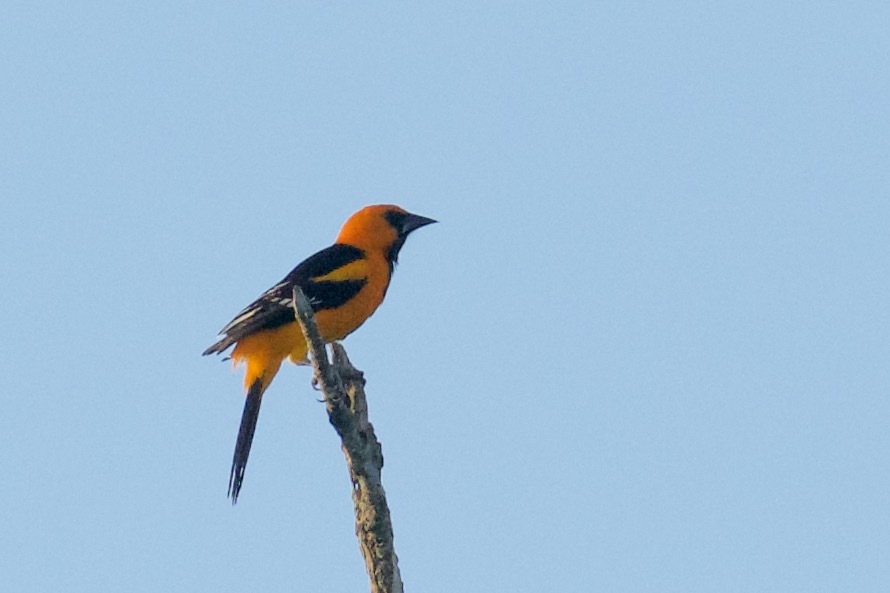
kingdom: Animalia
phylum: Chordata
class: Aves
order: Passeriformes
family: Icteridae
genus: Icterus
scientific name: Icterus gularis
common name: Altamira oriole
